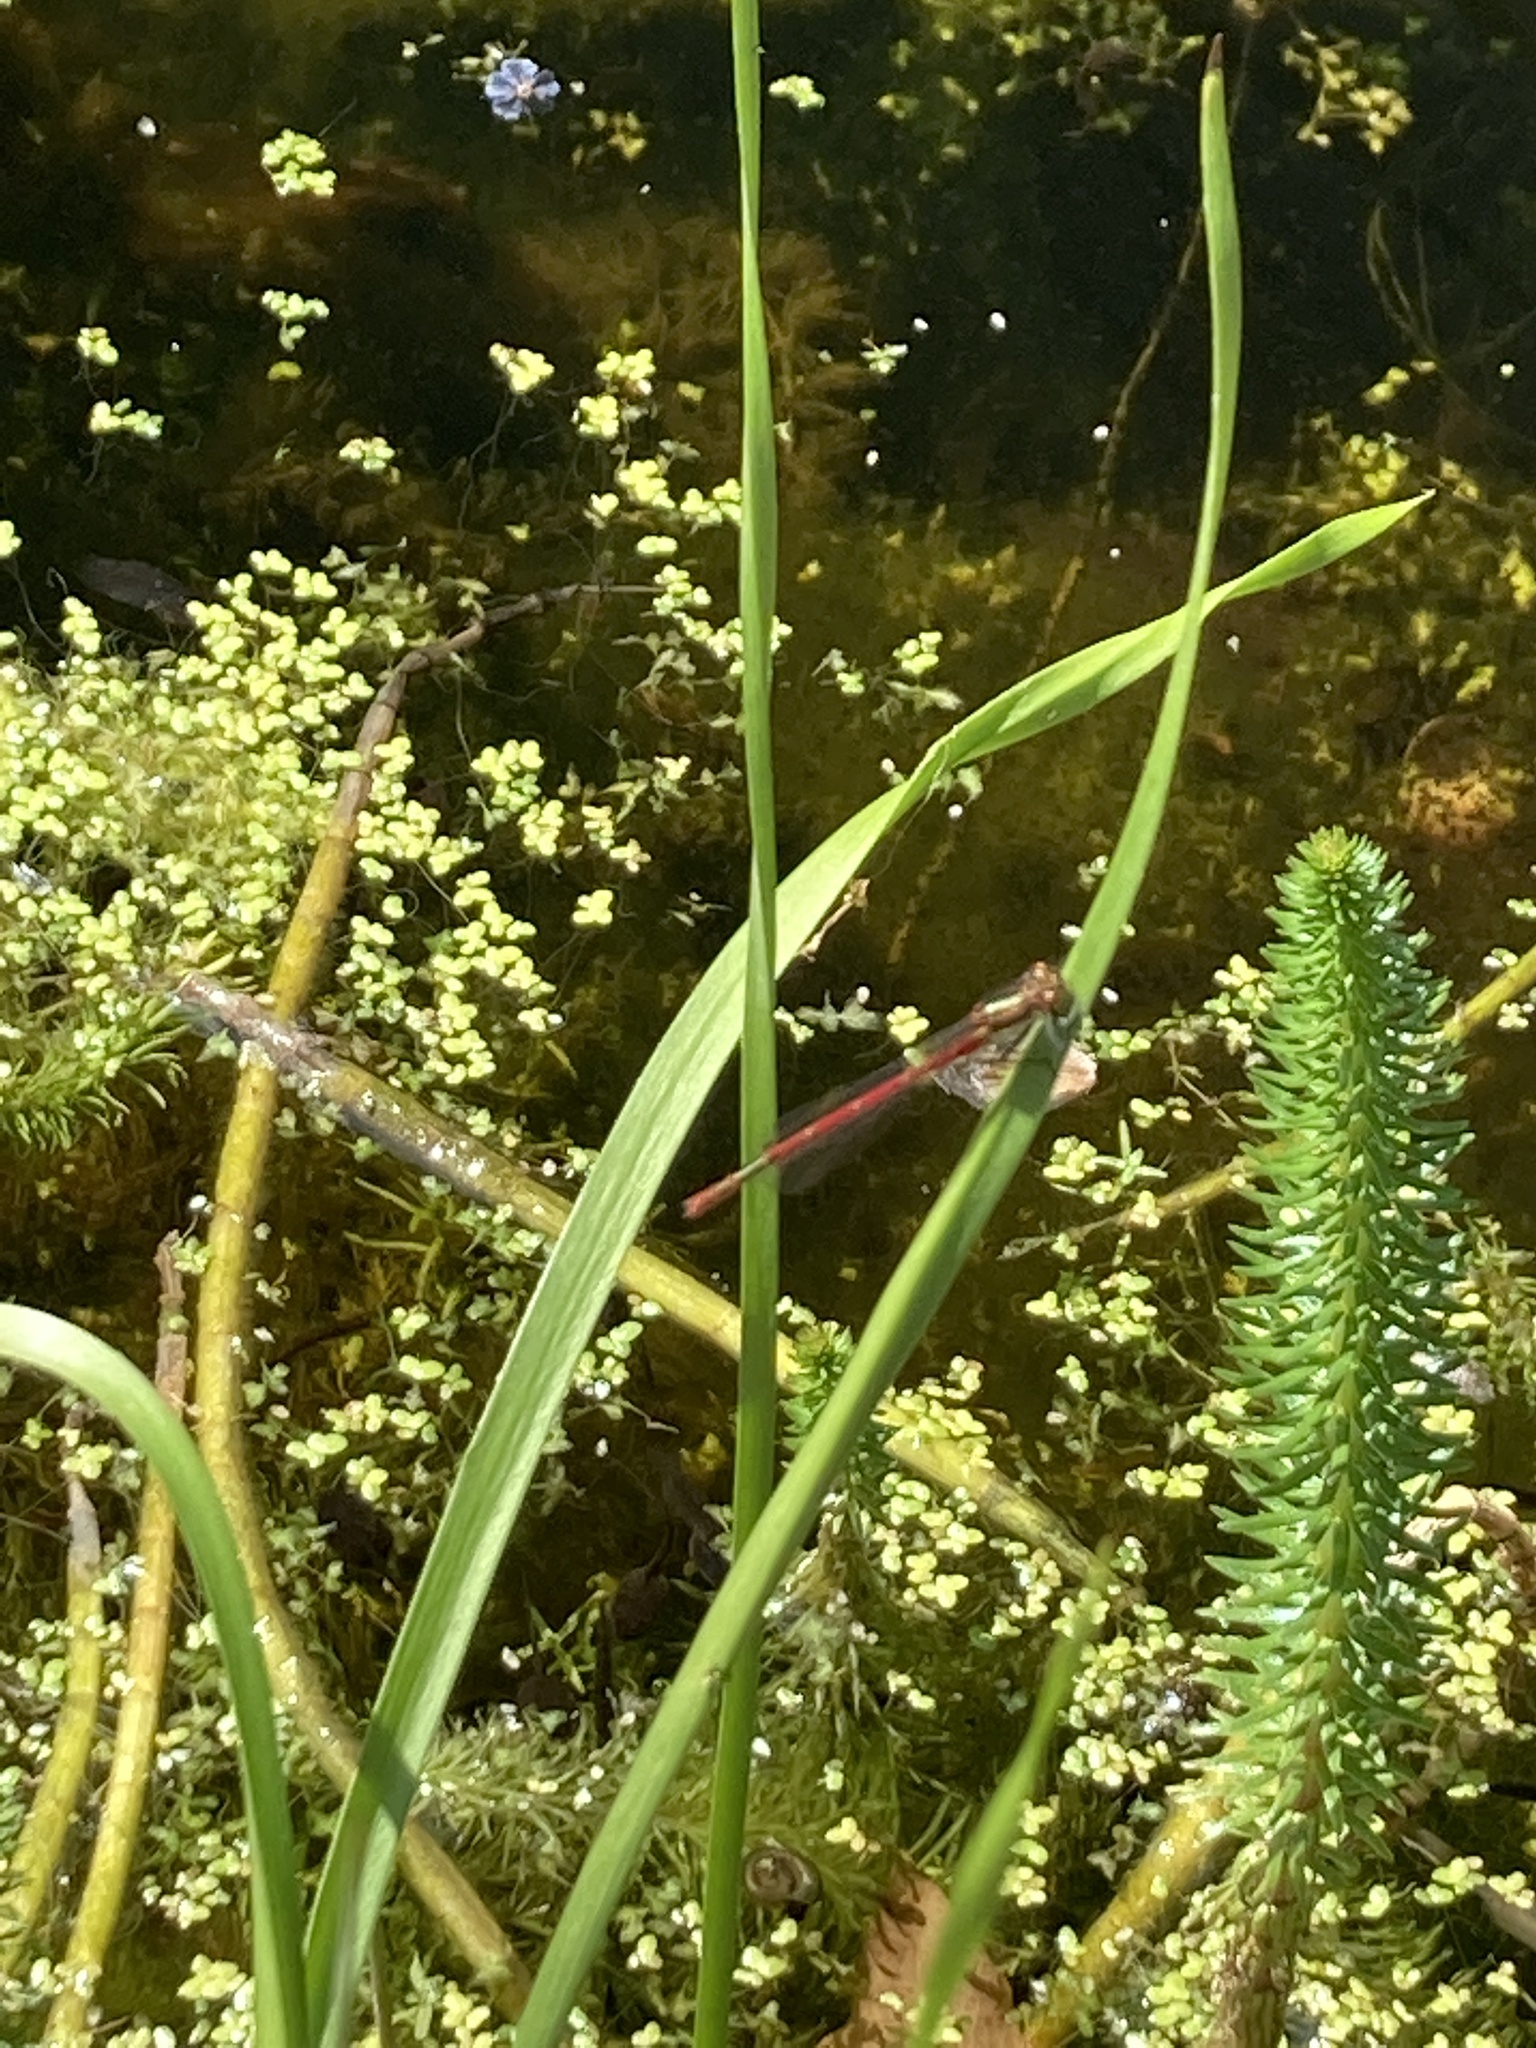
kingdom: Animalia
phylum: Arthropoda
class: Insecta
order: Odonata
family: Coenagrionidae
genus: Pyrrhosoma
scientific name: Pyrrhosoma nymphula
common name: Large red damsel
